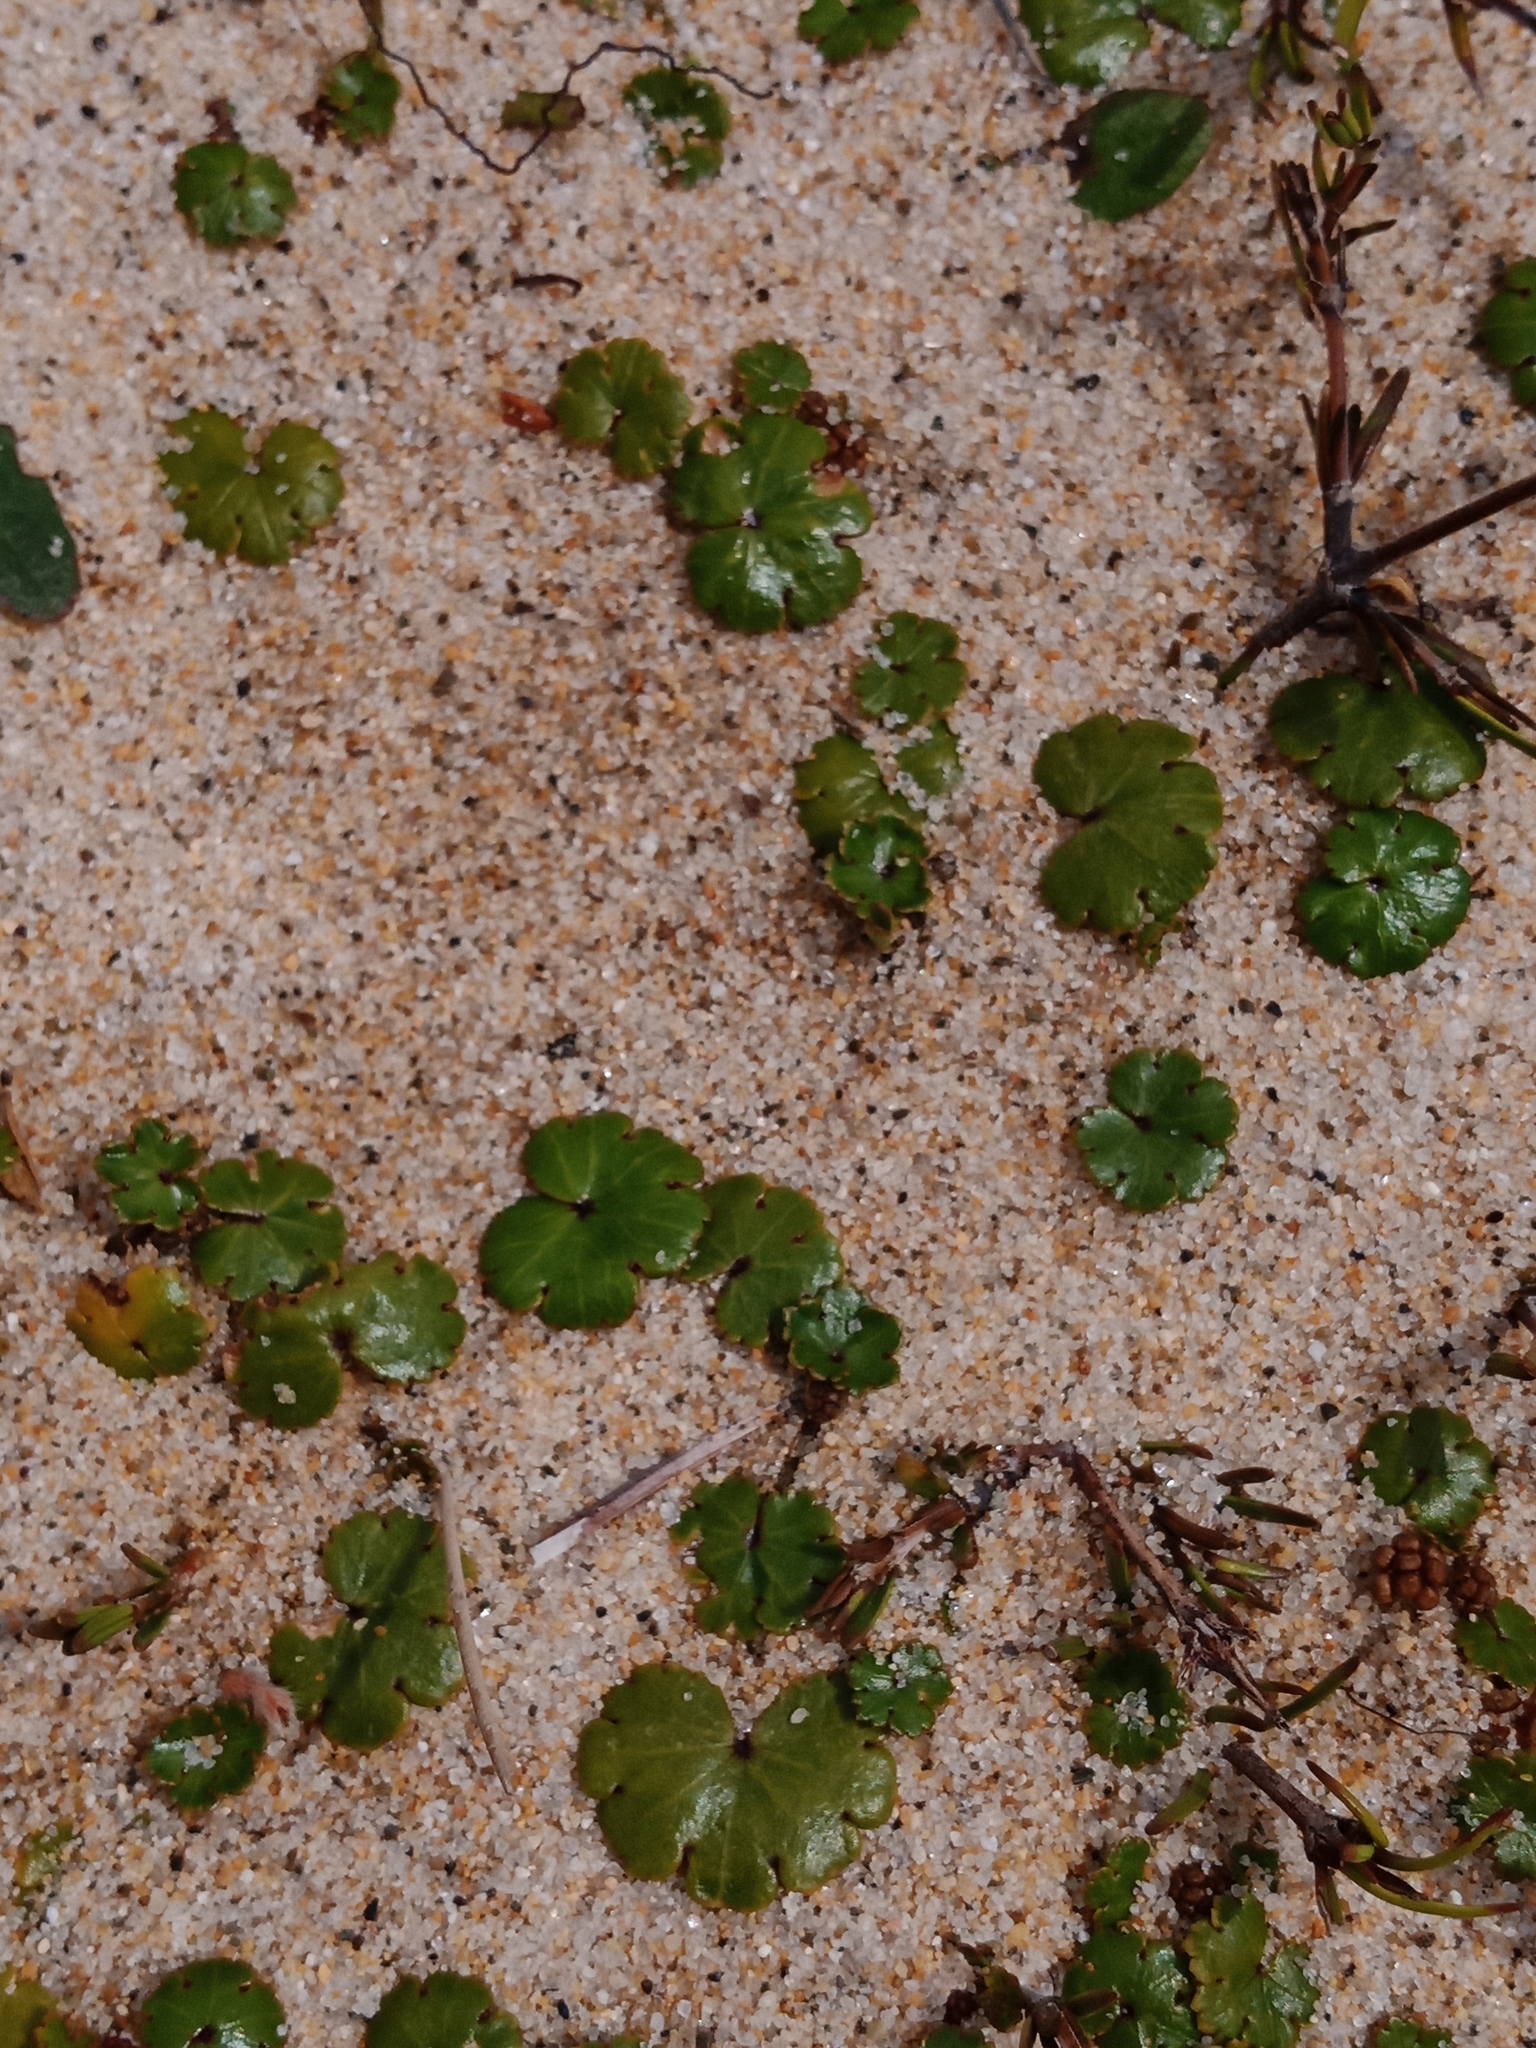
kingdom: Plantae
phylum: Tracheophyta
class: Magnoliopsida
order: Apiales
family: Araliaceae
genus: Hydrocotyle
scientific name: Hydrocotyle novae-zeelandiae
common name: New zealand pennywort
